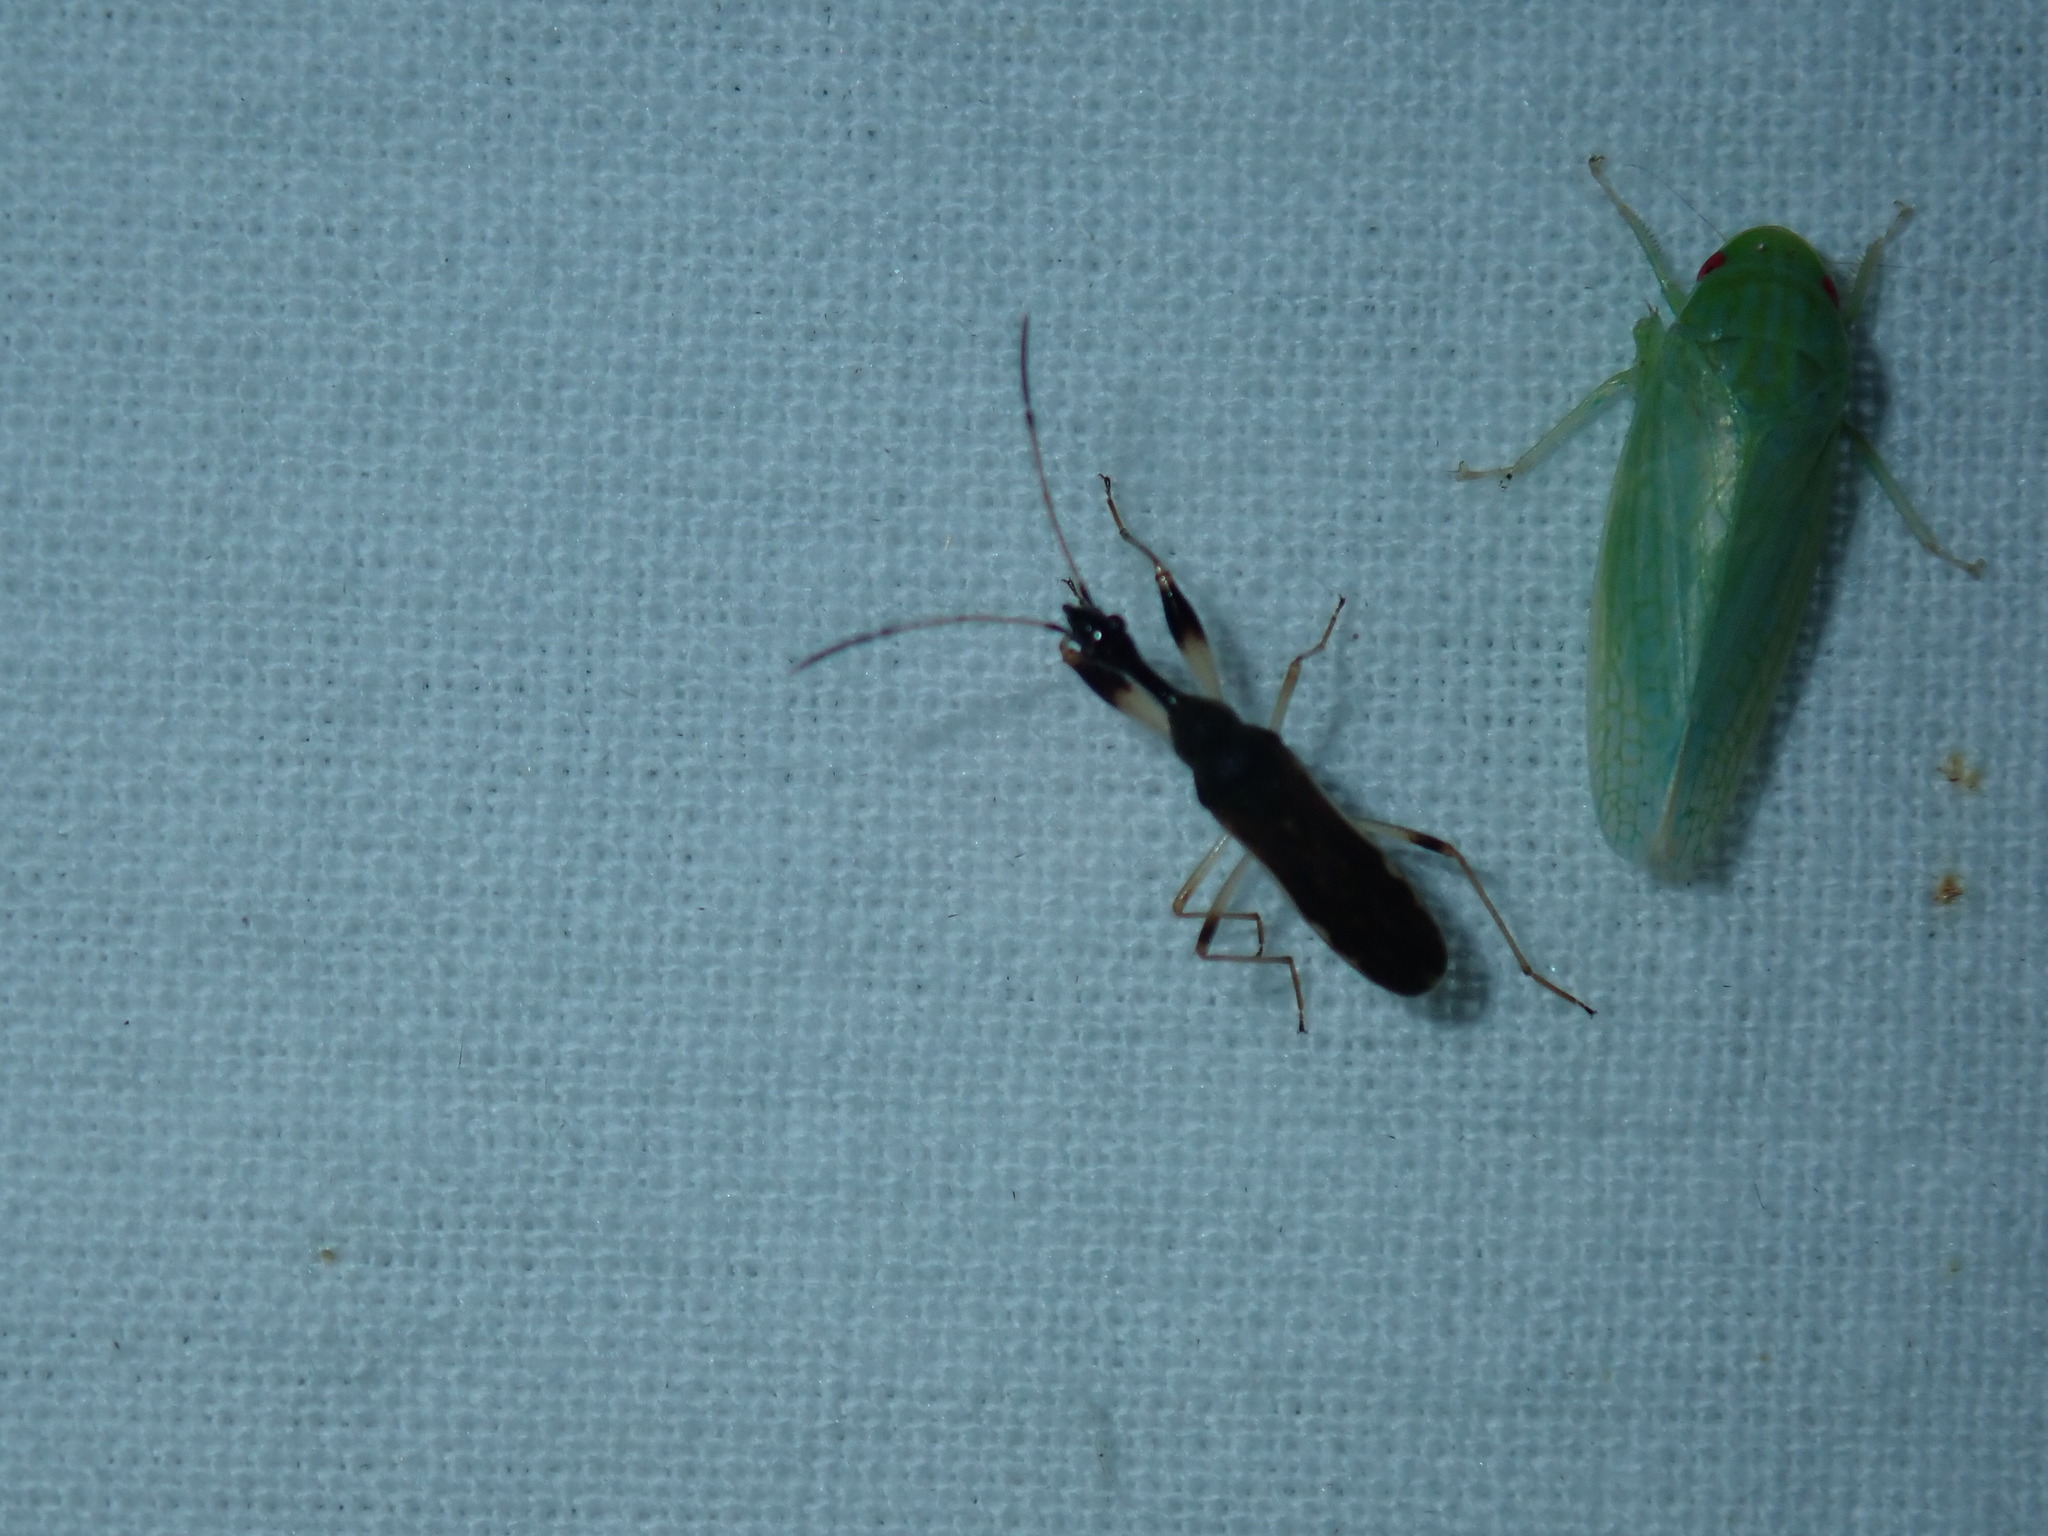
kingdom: Animalia
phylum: Arthropoda
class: Insecta
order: Hemiptera
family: Rhyparochromidae
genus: Myodocha
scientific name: Myodocha serripes
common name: Long-necked seed bug
